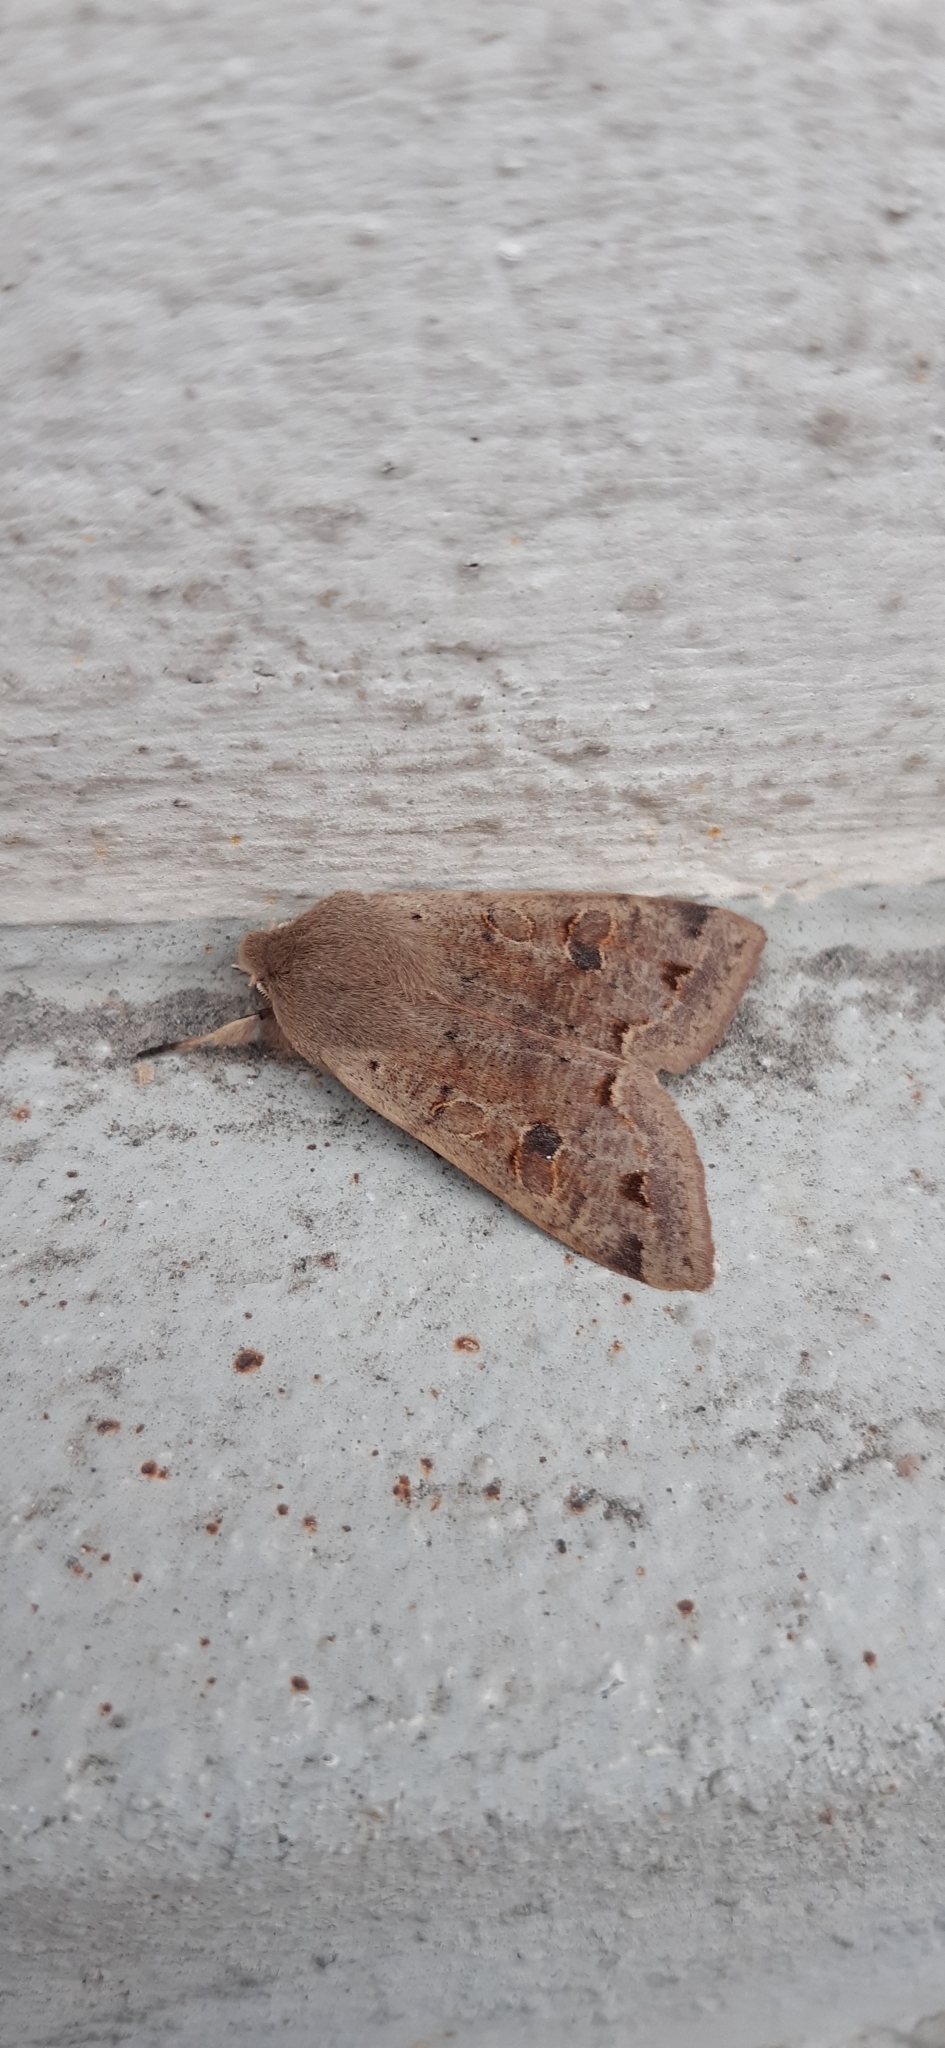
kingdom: Animalia
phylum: Arthropoda
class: Insecta
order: Lepidoptera
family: Noctuidae
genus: Orthosia
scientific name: Orthosia incerta
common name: Clouded drab
